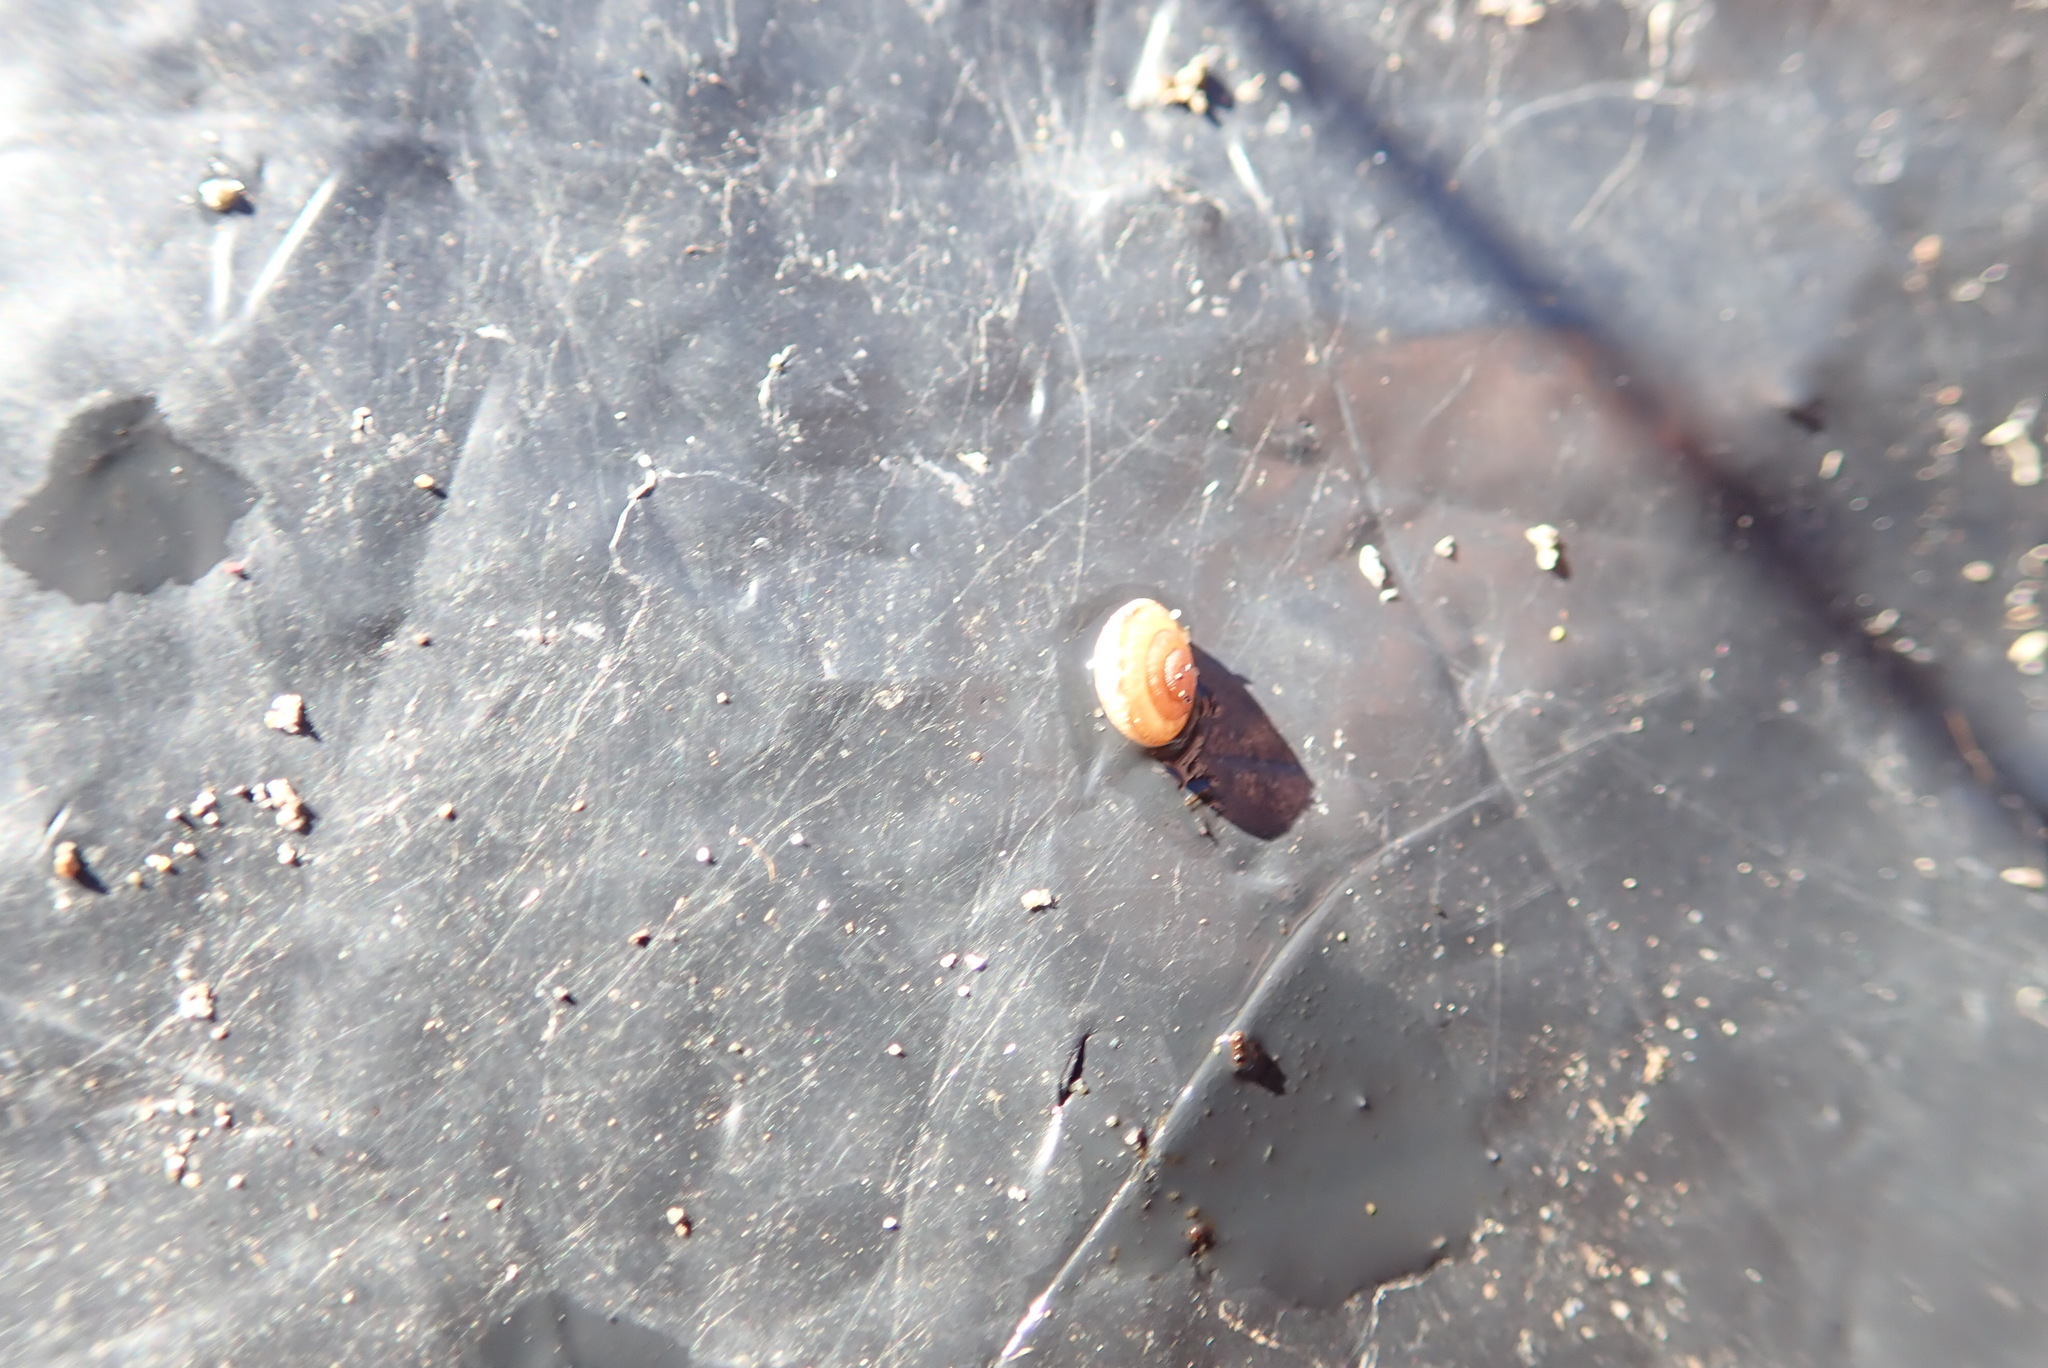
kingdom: Animalia
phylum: Mollusca
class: Gastropoda
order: Stylommatophora
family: Geomitridae
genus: Xeroplexa
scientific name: Xeroplexa intersecta
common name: Wrinkled snail
